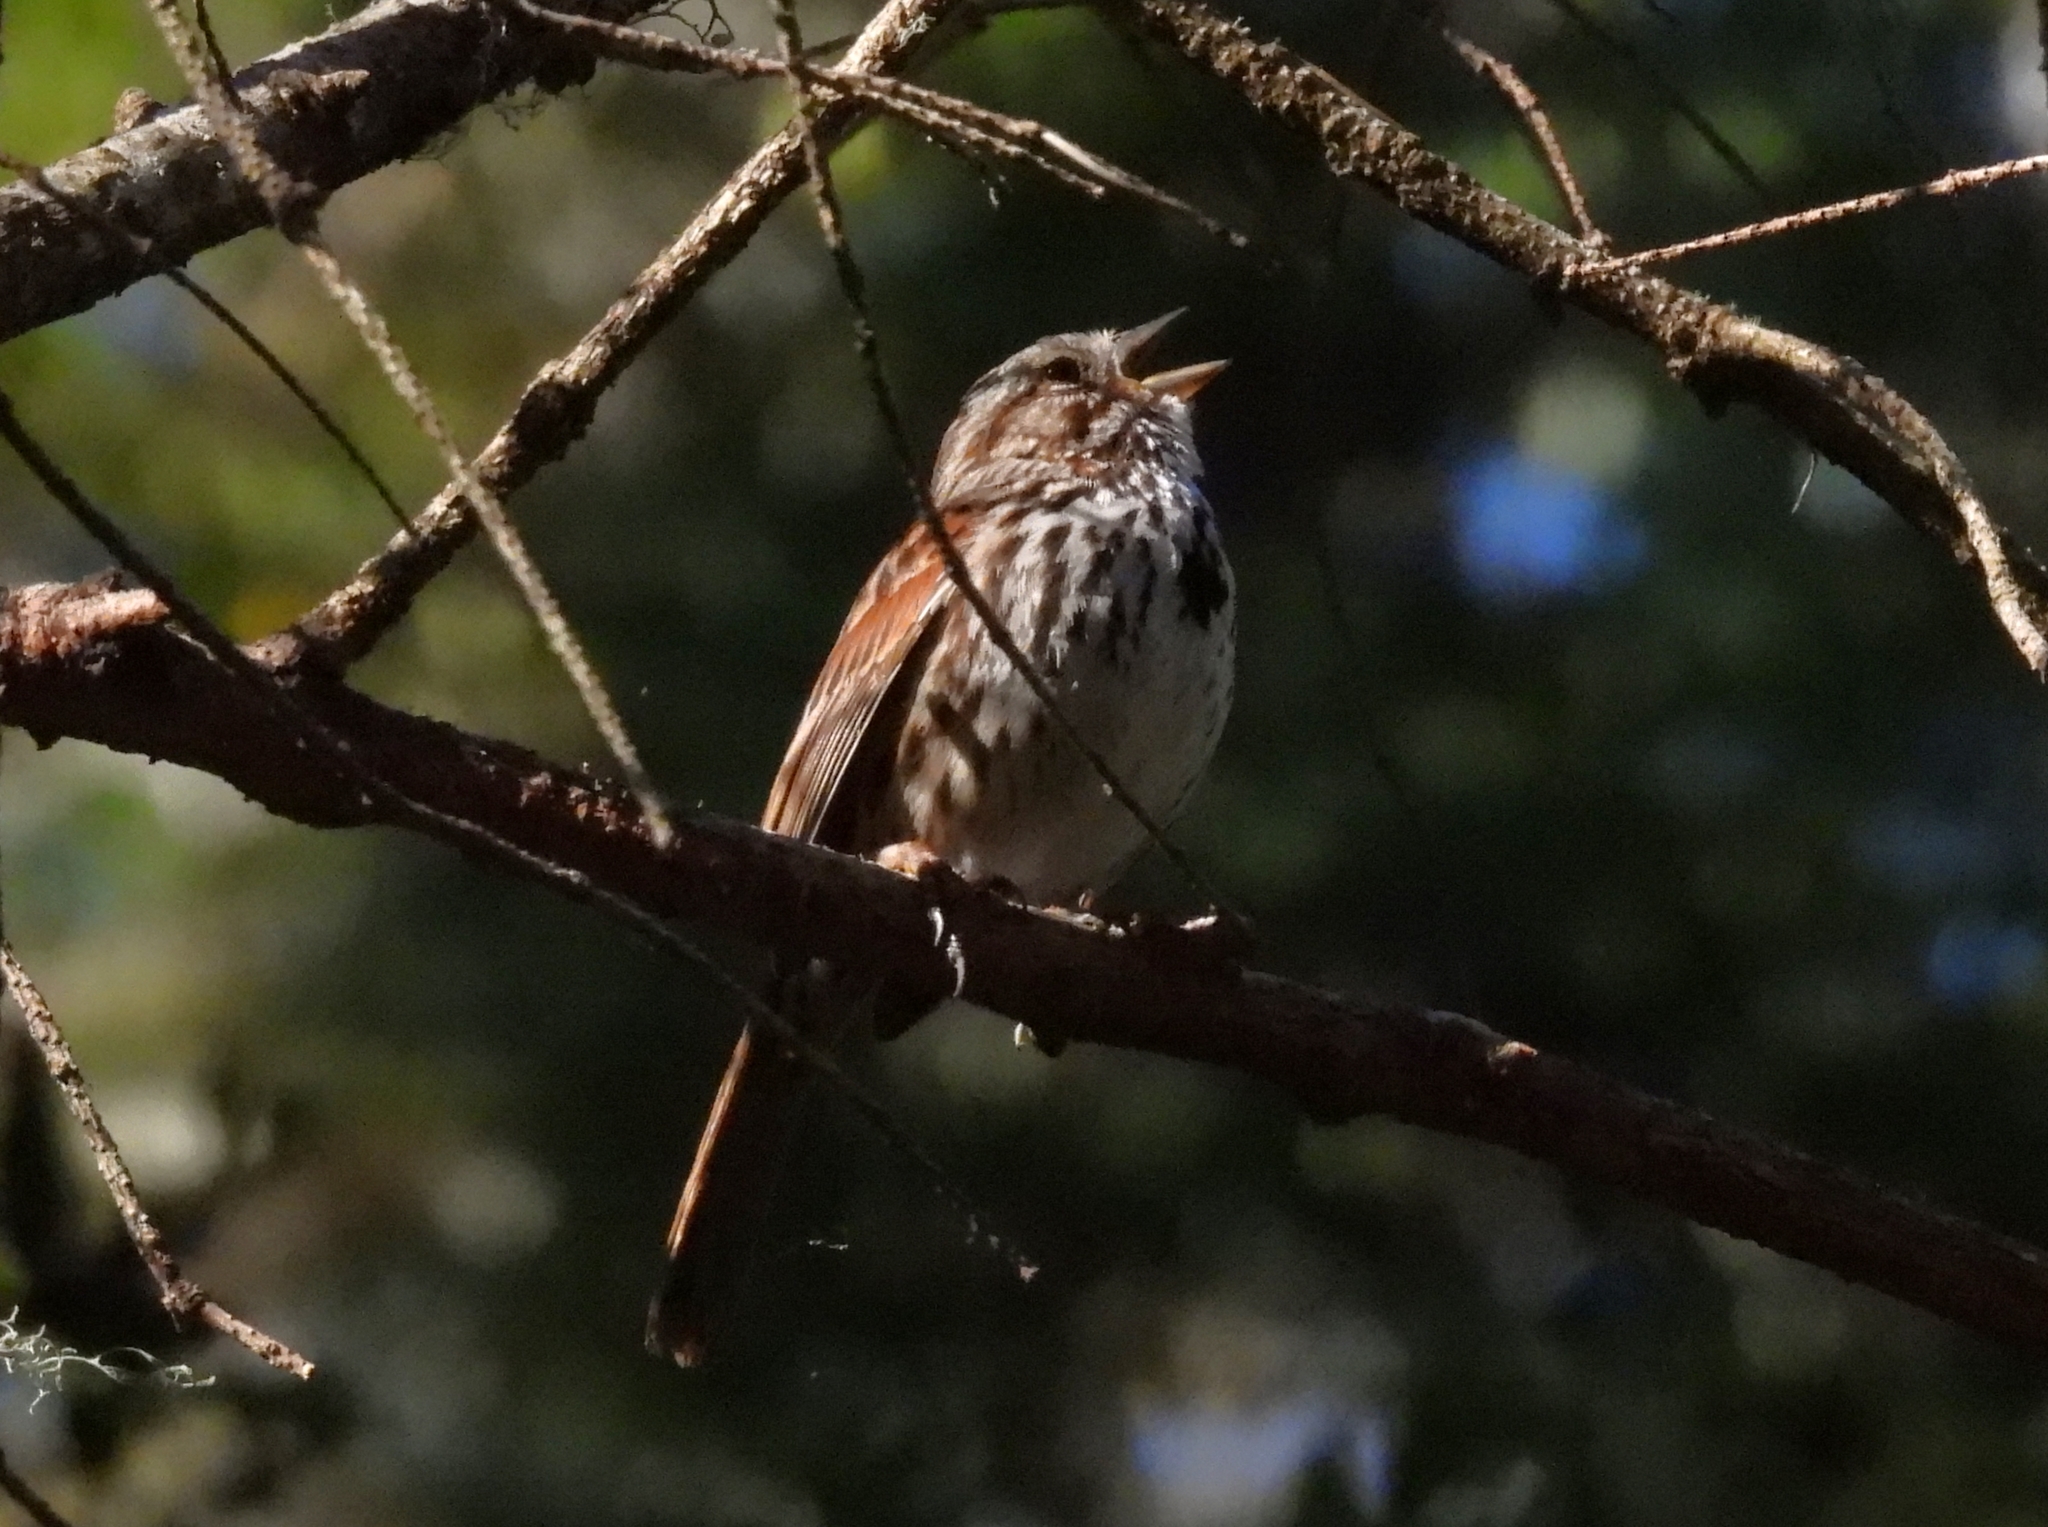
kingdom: Animalia
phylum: Chordata
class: Aves
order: Passeriformes
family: Passerellidae
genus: Melospiza
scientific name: Melospiza melodia
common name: Song sparrow
